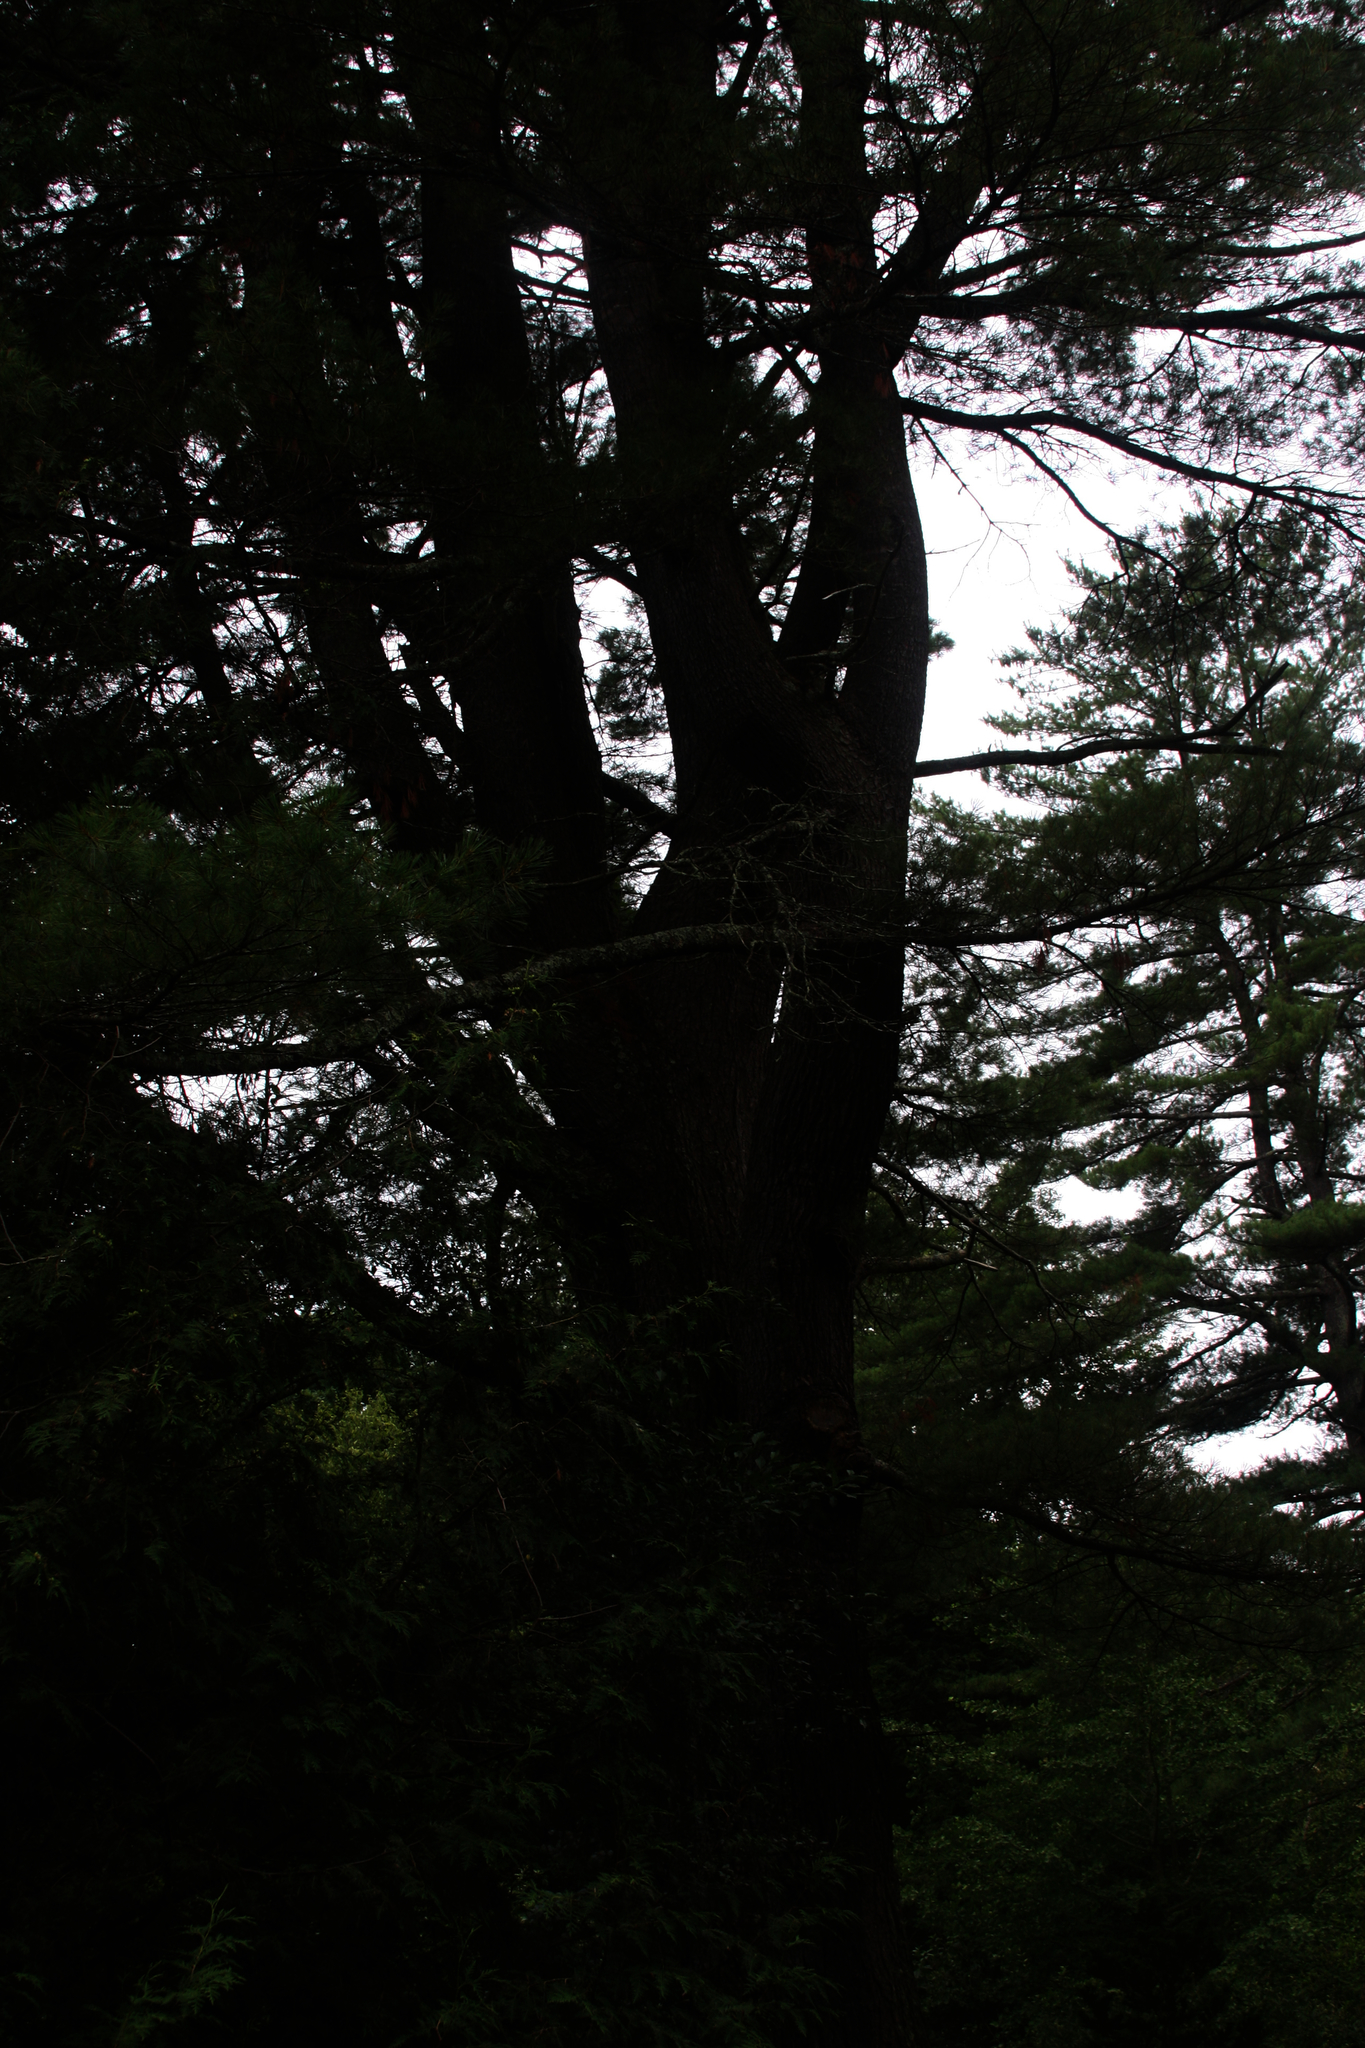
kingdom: Plantae
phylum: Tracheophyta
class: Pinopsida
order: Pinales
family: Pinaceae
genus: Pinus
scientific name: Pinus strobus
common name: Weymouth pine
